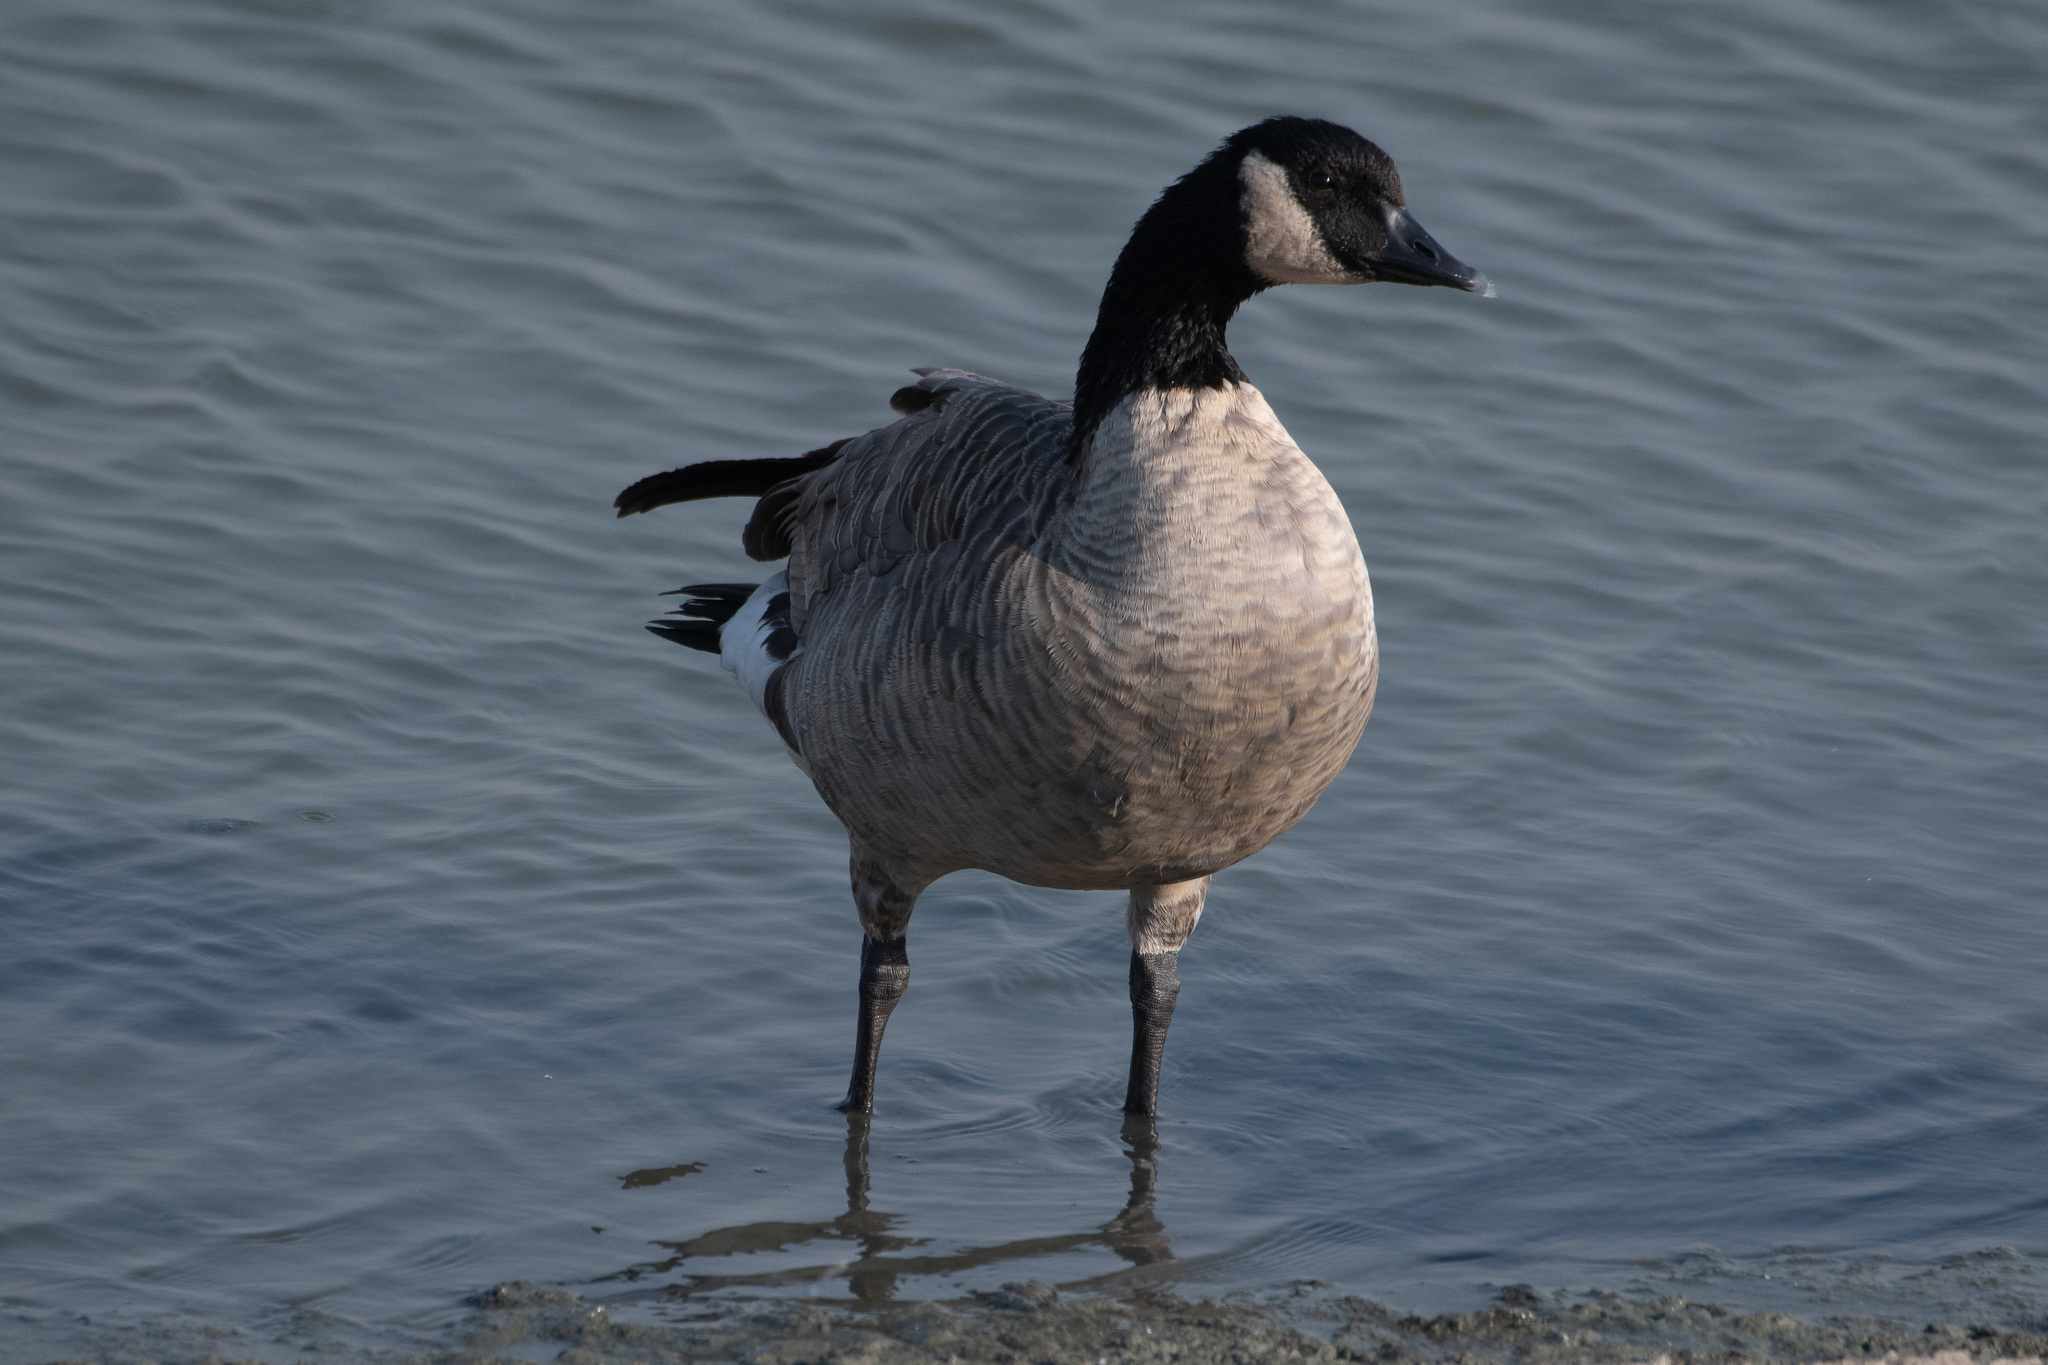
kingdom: Animalia
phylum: Chordata
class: Aves
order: Anseriformes
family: Anatidae
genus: Branta
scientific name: Branta canadensis
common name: Canada goose
